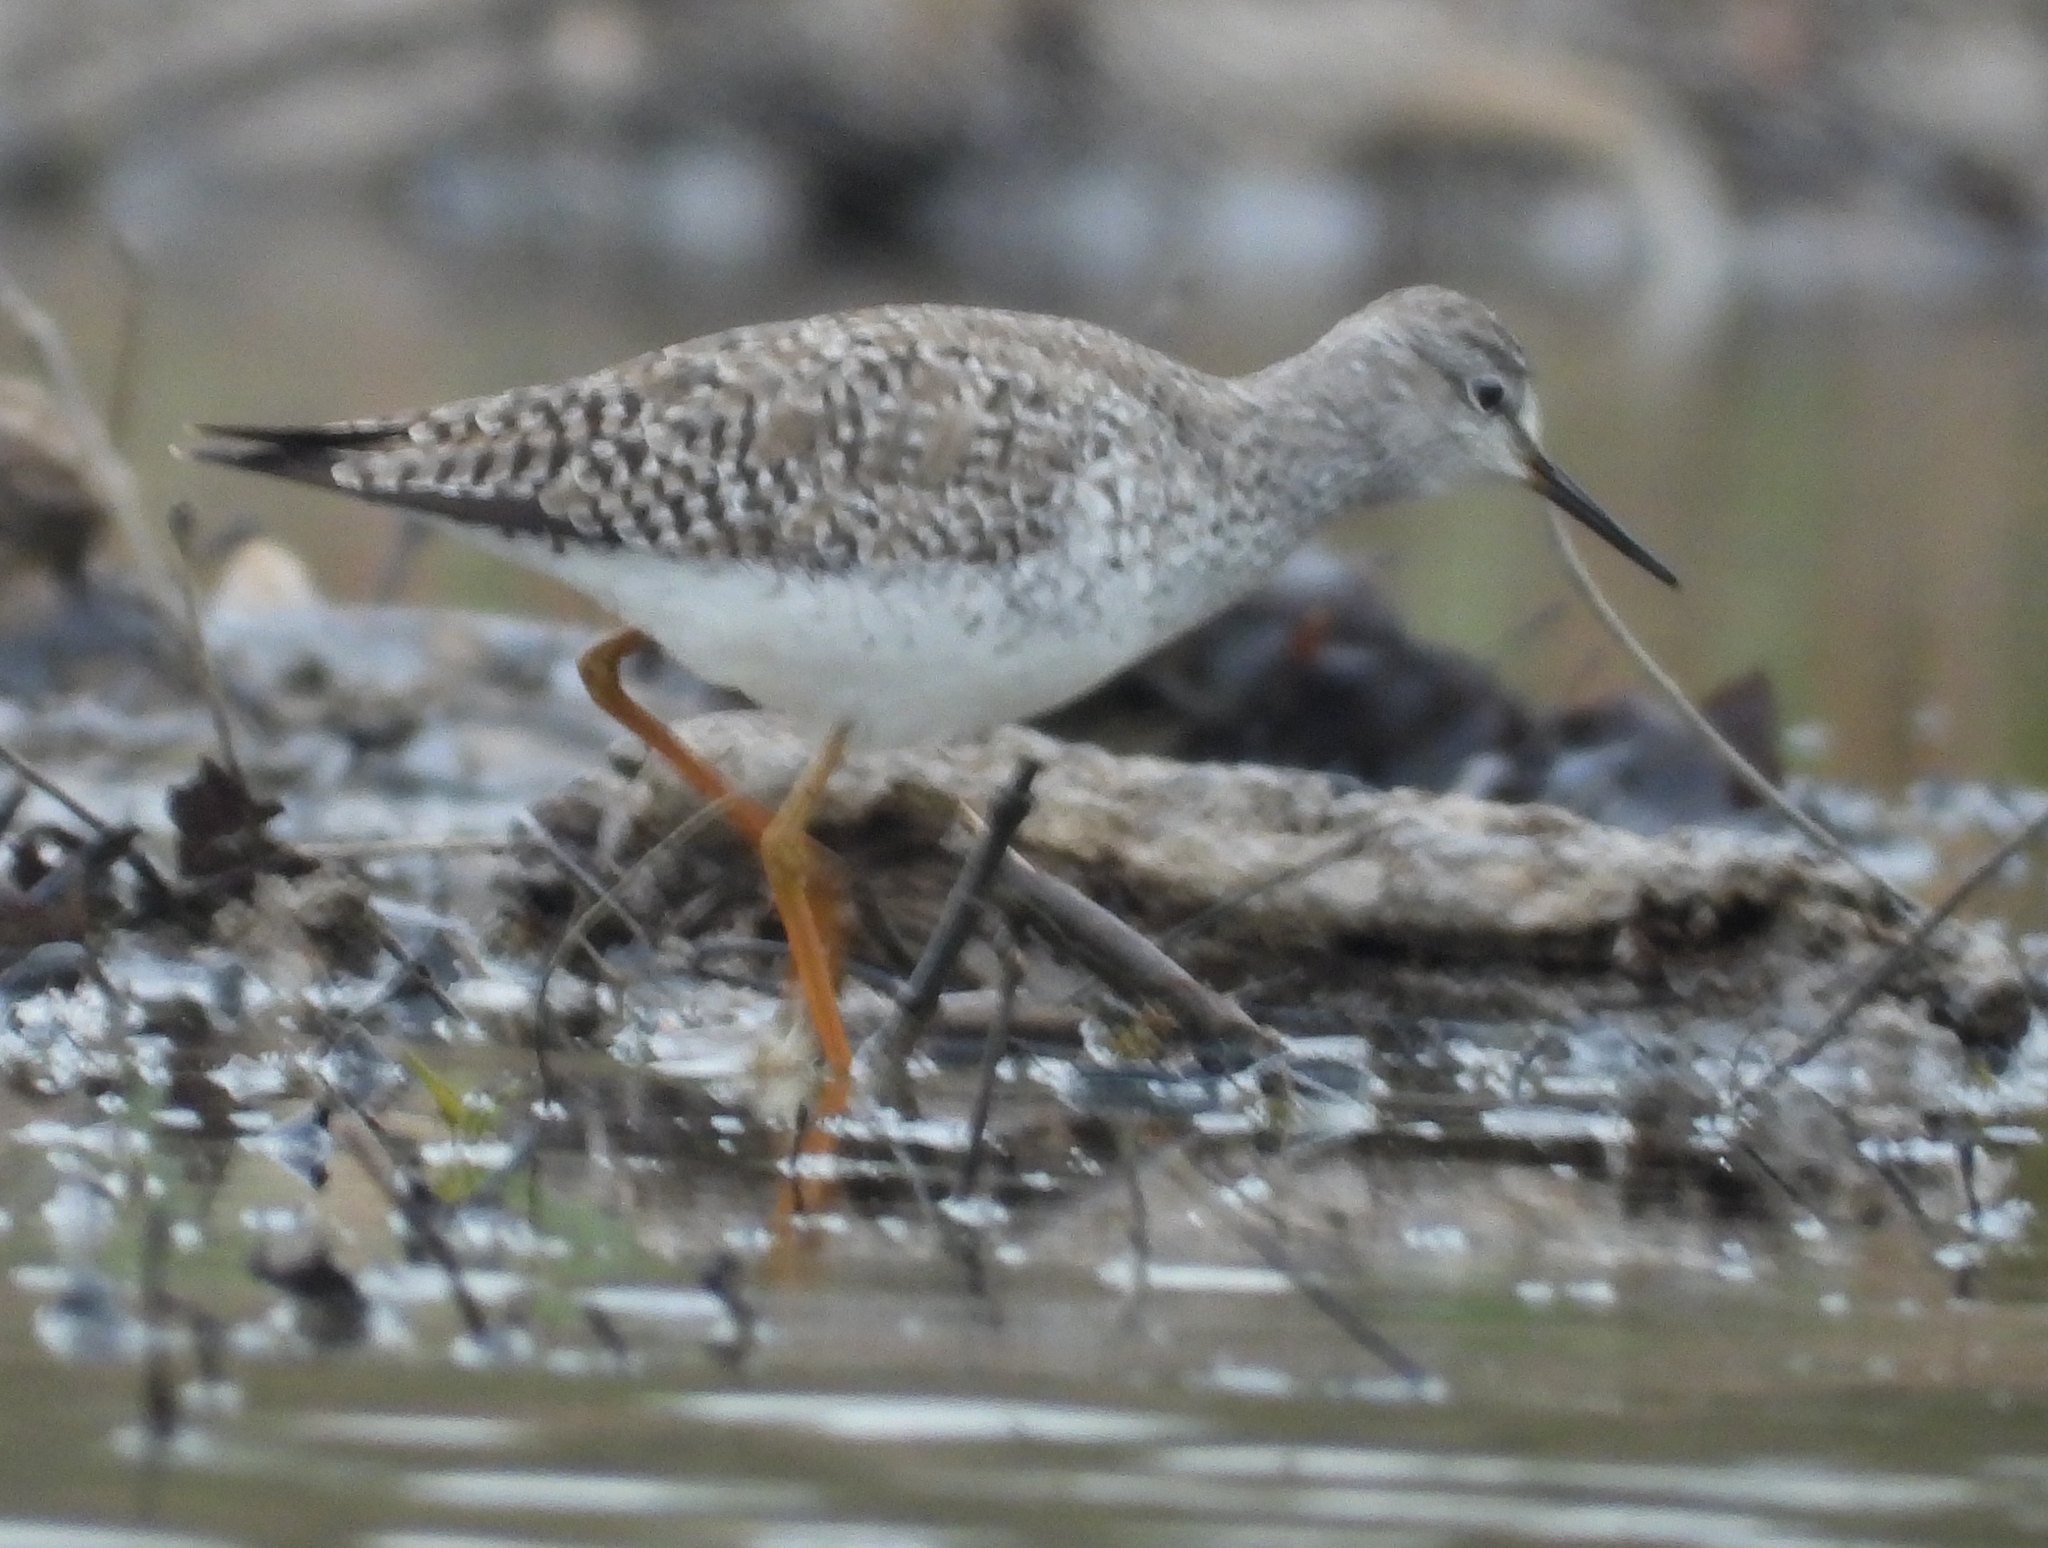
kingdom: Animalia
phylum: Chordata
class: Aves
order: Charadriiformes
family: Scolopacidae
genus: Tringa
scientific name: Tringa flavipes
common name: Lesser yellowlegs
